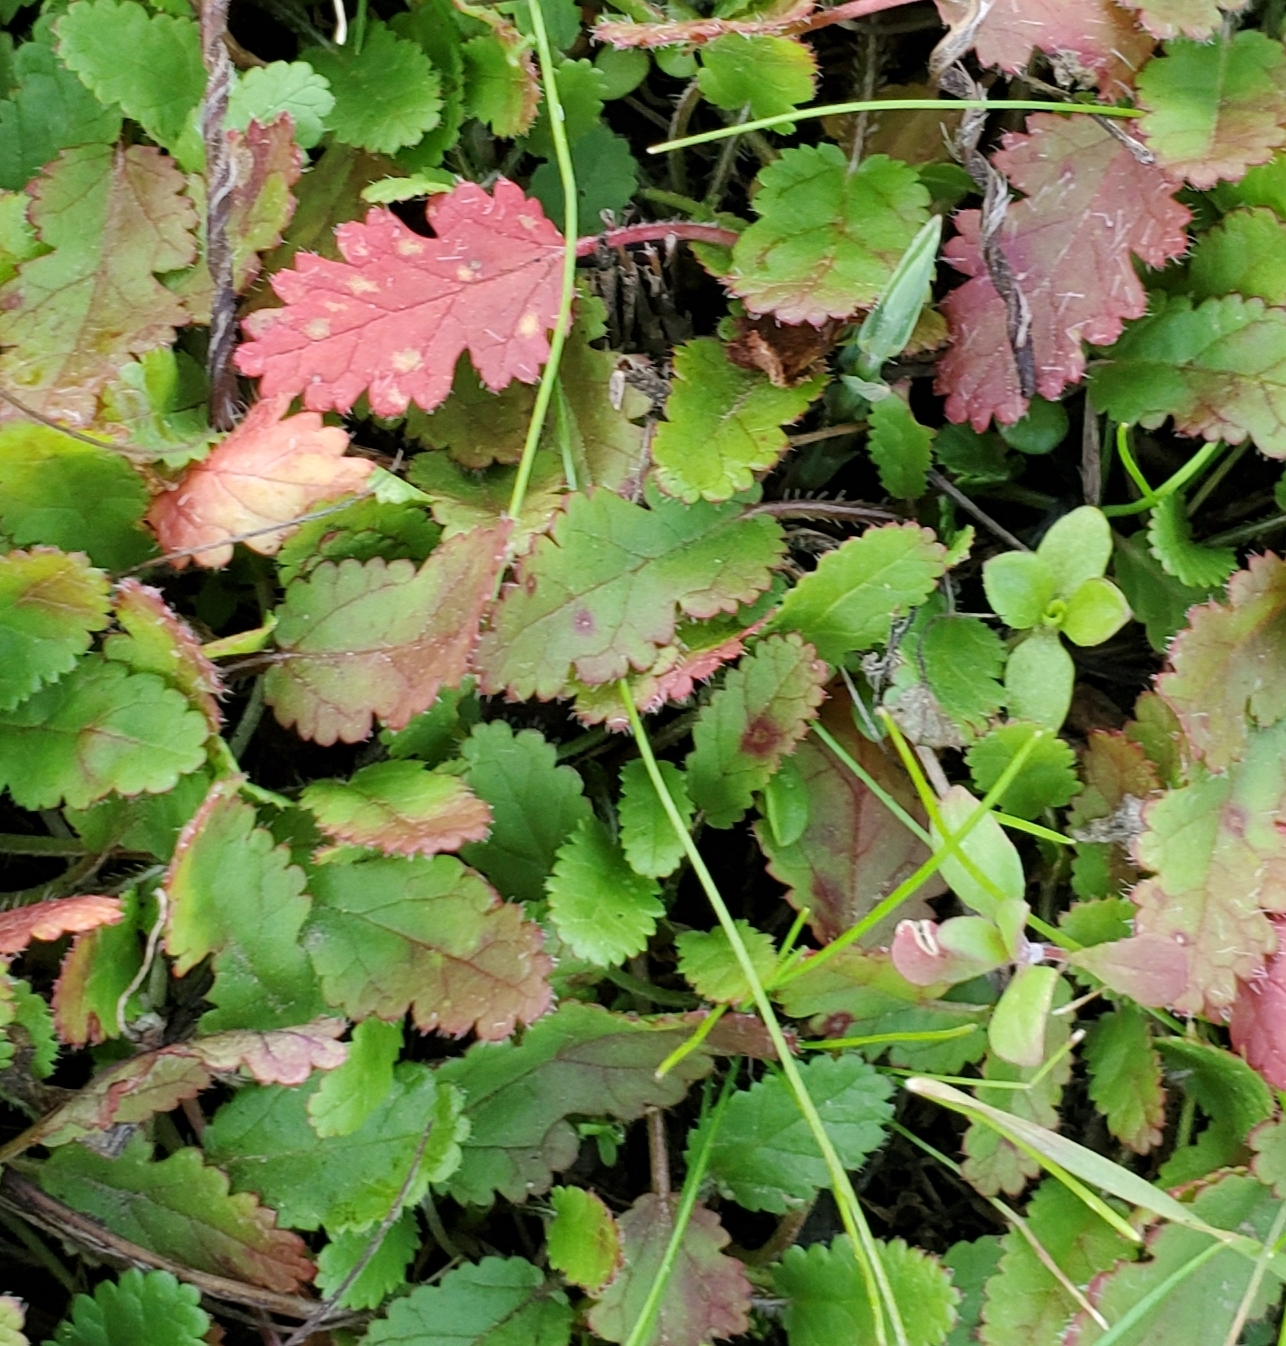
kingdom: Plantae
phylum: Tracheophyta
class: Magnoliopsida
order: Geraniales
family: Geraniaceae
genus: Erodium
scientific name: Erodium botrys
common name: Mediterranean stork's-bill
